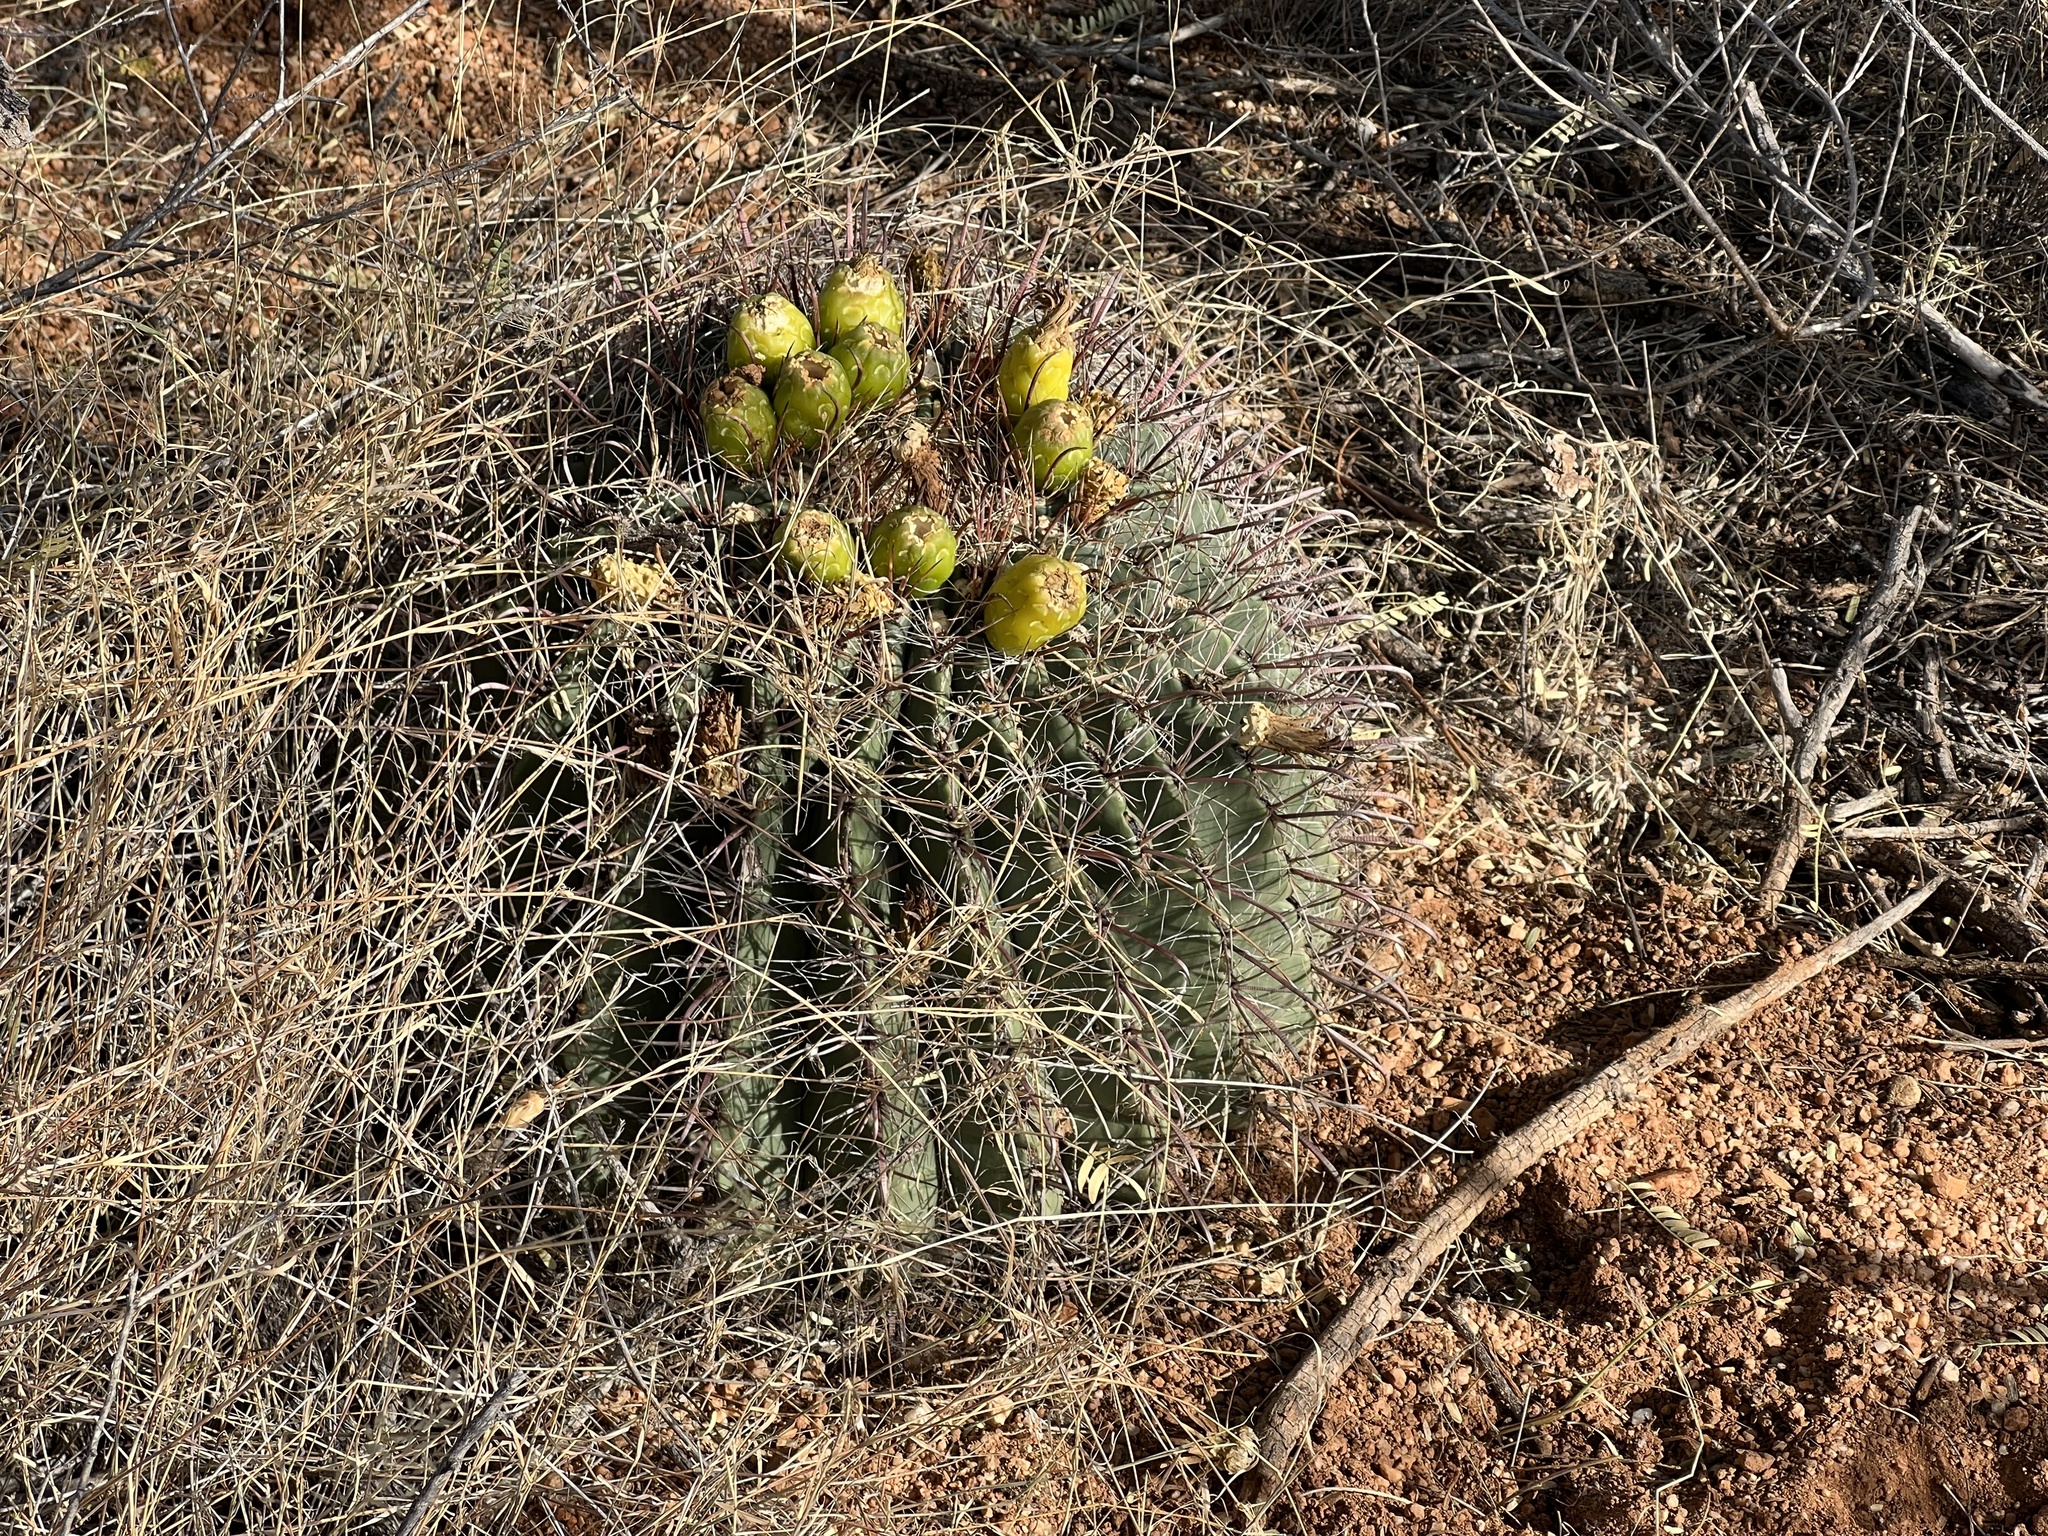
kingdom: Plantae
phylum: Tracheophyta
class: Magnoliopsida
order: Caryophyllales
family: Cactaceae
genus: Ferocactus
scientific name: Ferocactus wislizeni
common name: Candy barrel cactus
